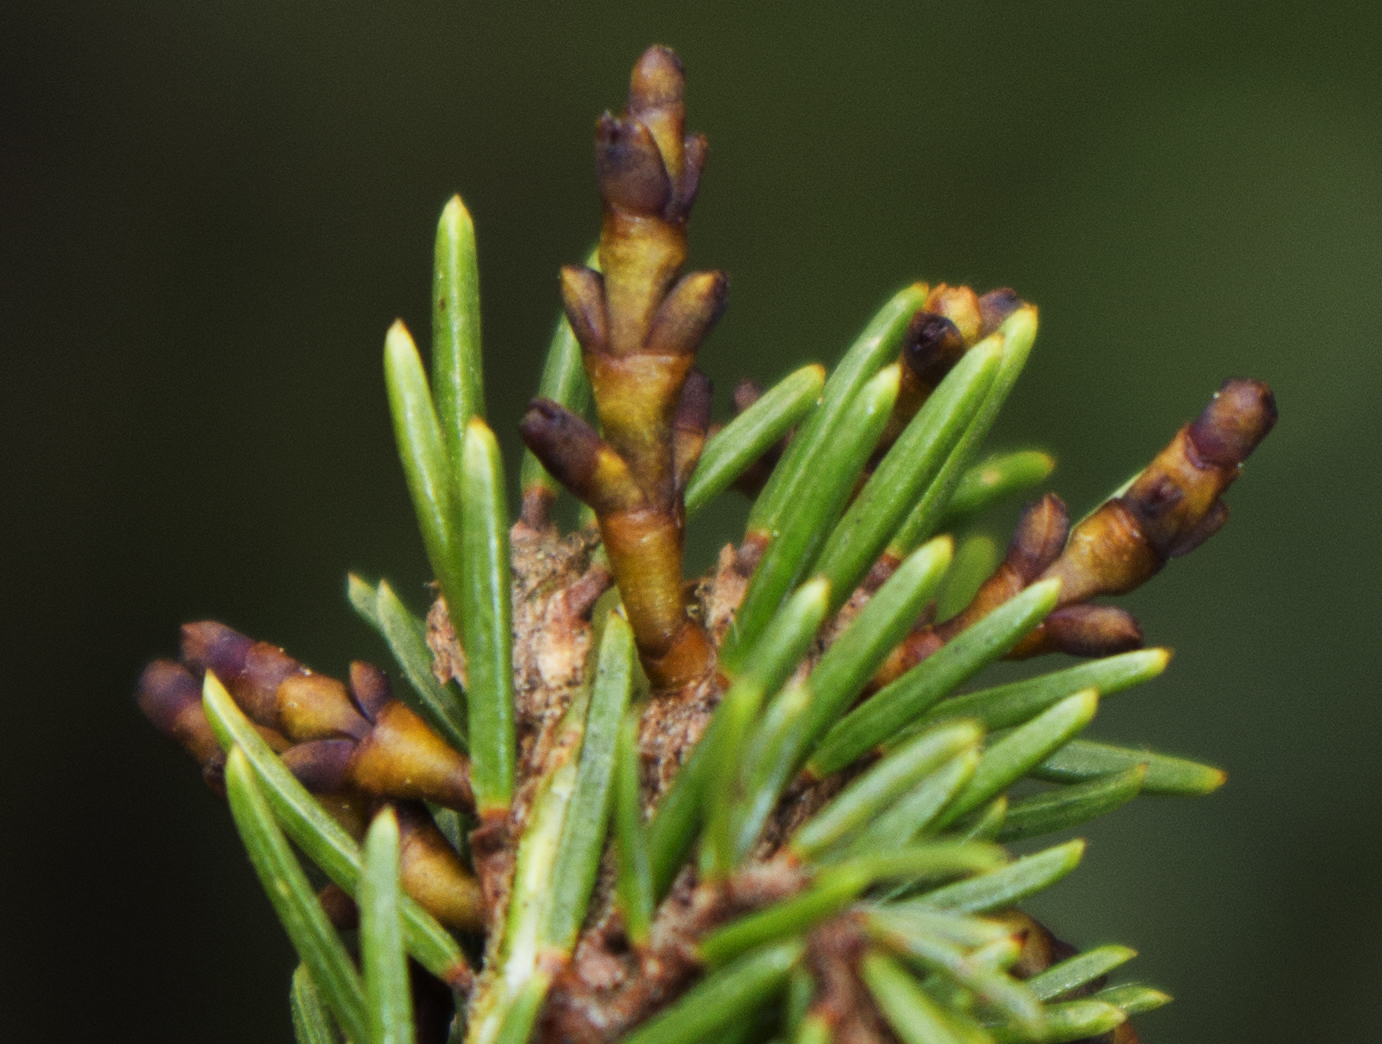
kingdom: Plantae
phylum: Tracheophyta
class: Magnoliopsida
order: Santalales
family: Viscaceae
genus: Arceuthobium
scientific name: Arceuthobium pusillum
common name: Dwarf-mistletoe
